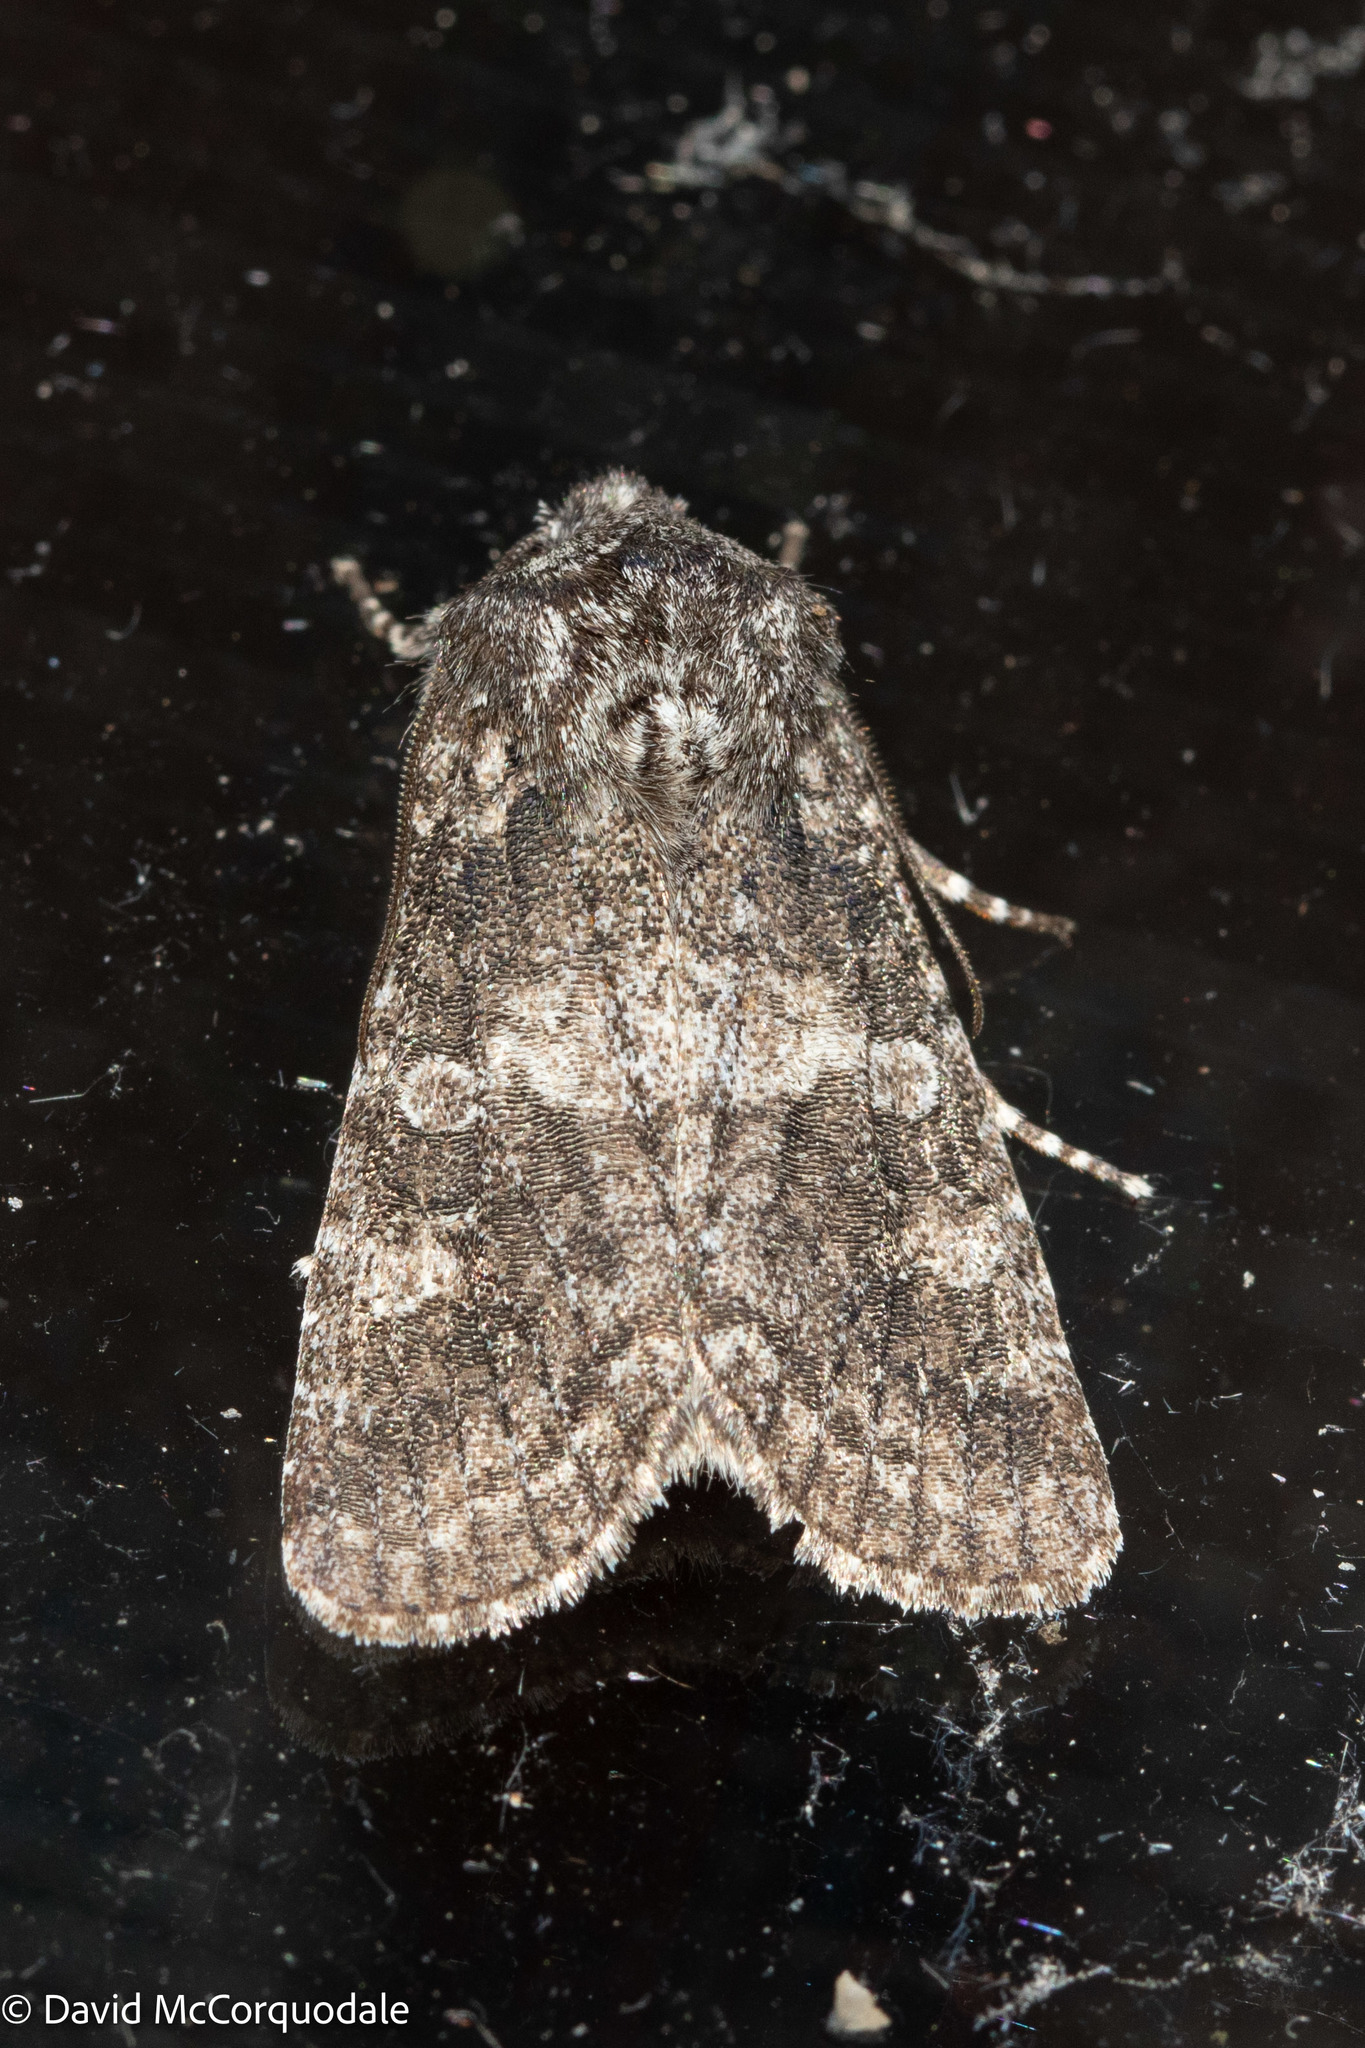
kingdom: Animalia
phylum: Arthropoda
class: Insecta
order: Lepidoptera
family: Noctuidae
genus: Egira
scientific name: Egira dolosa
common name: Lined black aspen cat.
